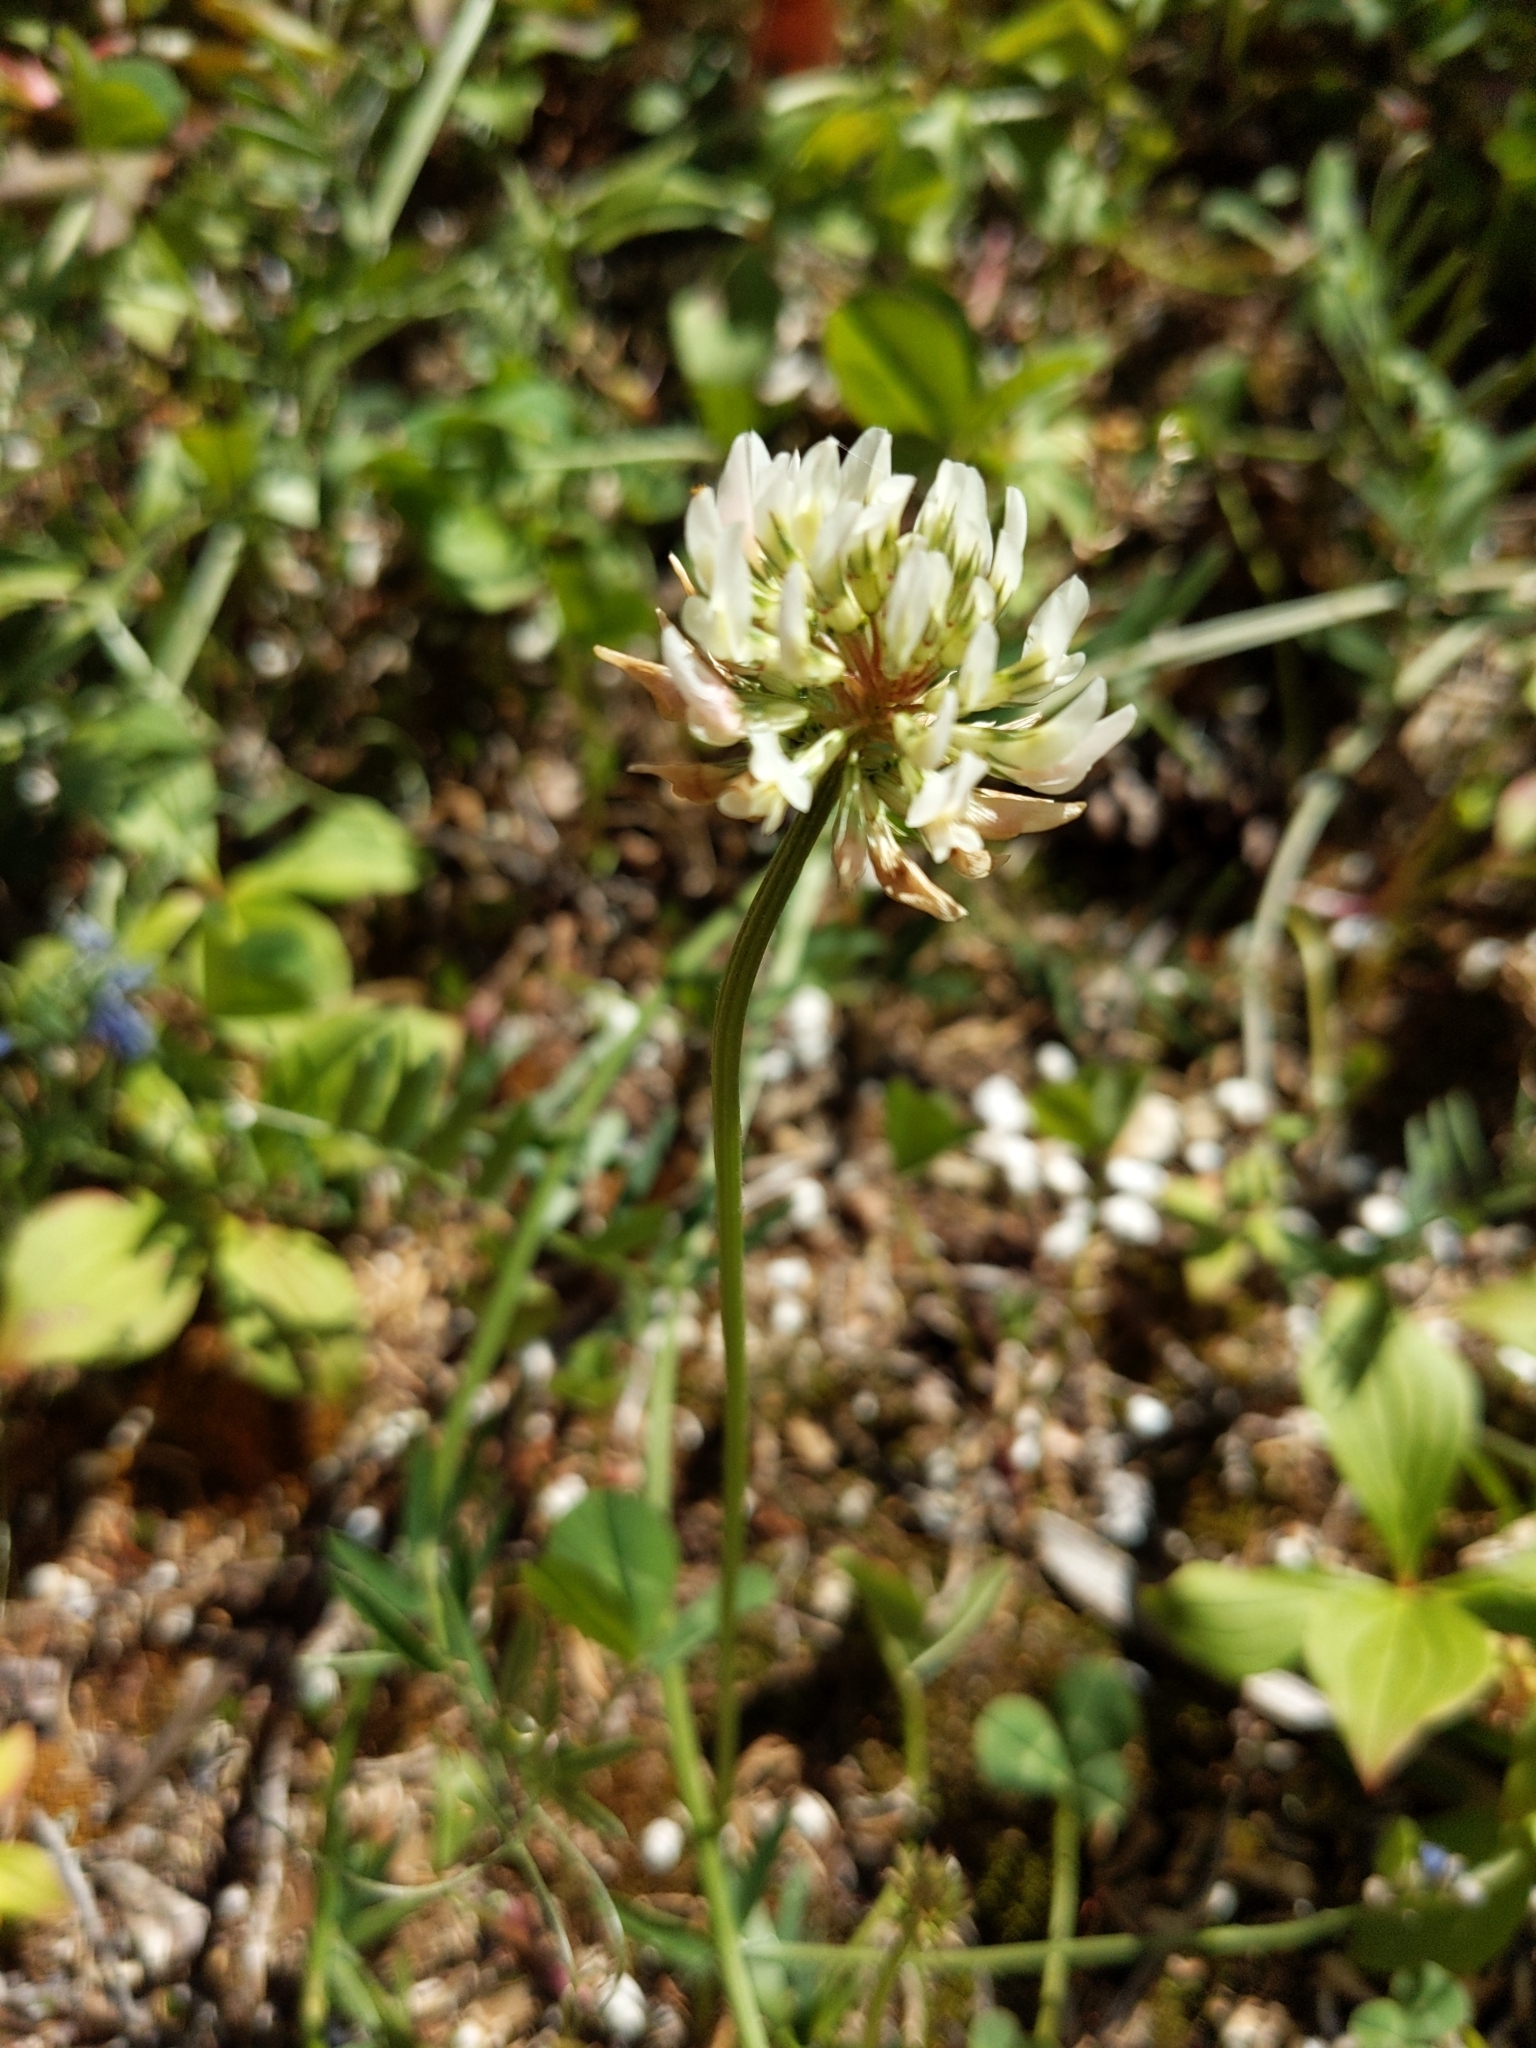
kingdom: Plantae
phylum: Tracheophyta
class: Magnoliopsida
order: Fabales
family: Fabaceae
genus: Trifolium
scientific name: Trifolium repens
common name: White clover
